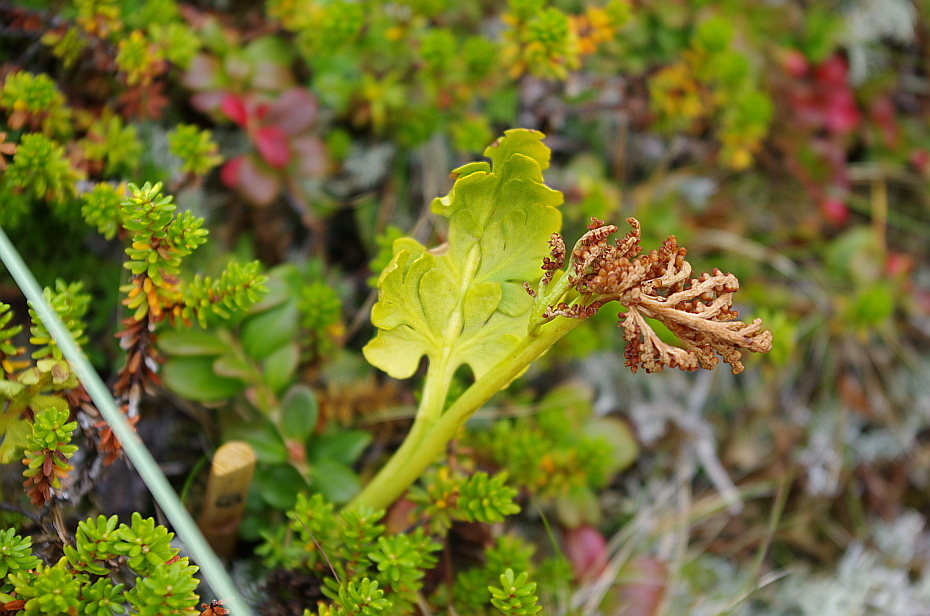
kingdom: Plantae
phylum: Tracheophyta
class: Polypodiopsida
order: Ophioglossales
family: Ophioglossaceae
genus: Botrychium
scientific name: Botrychium boreale
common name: Boreal moonwort
